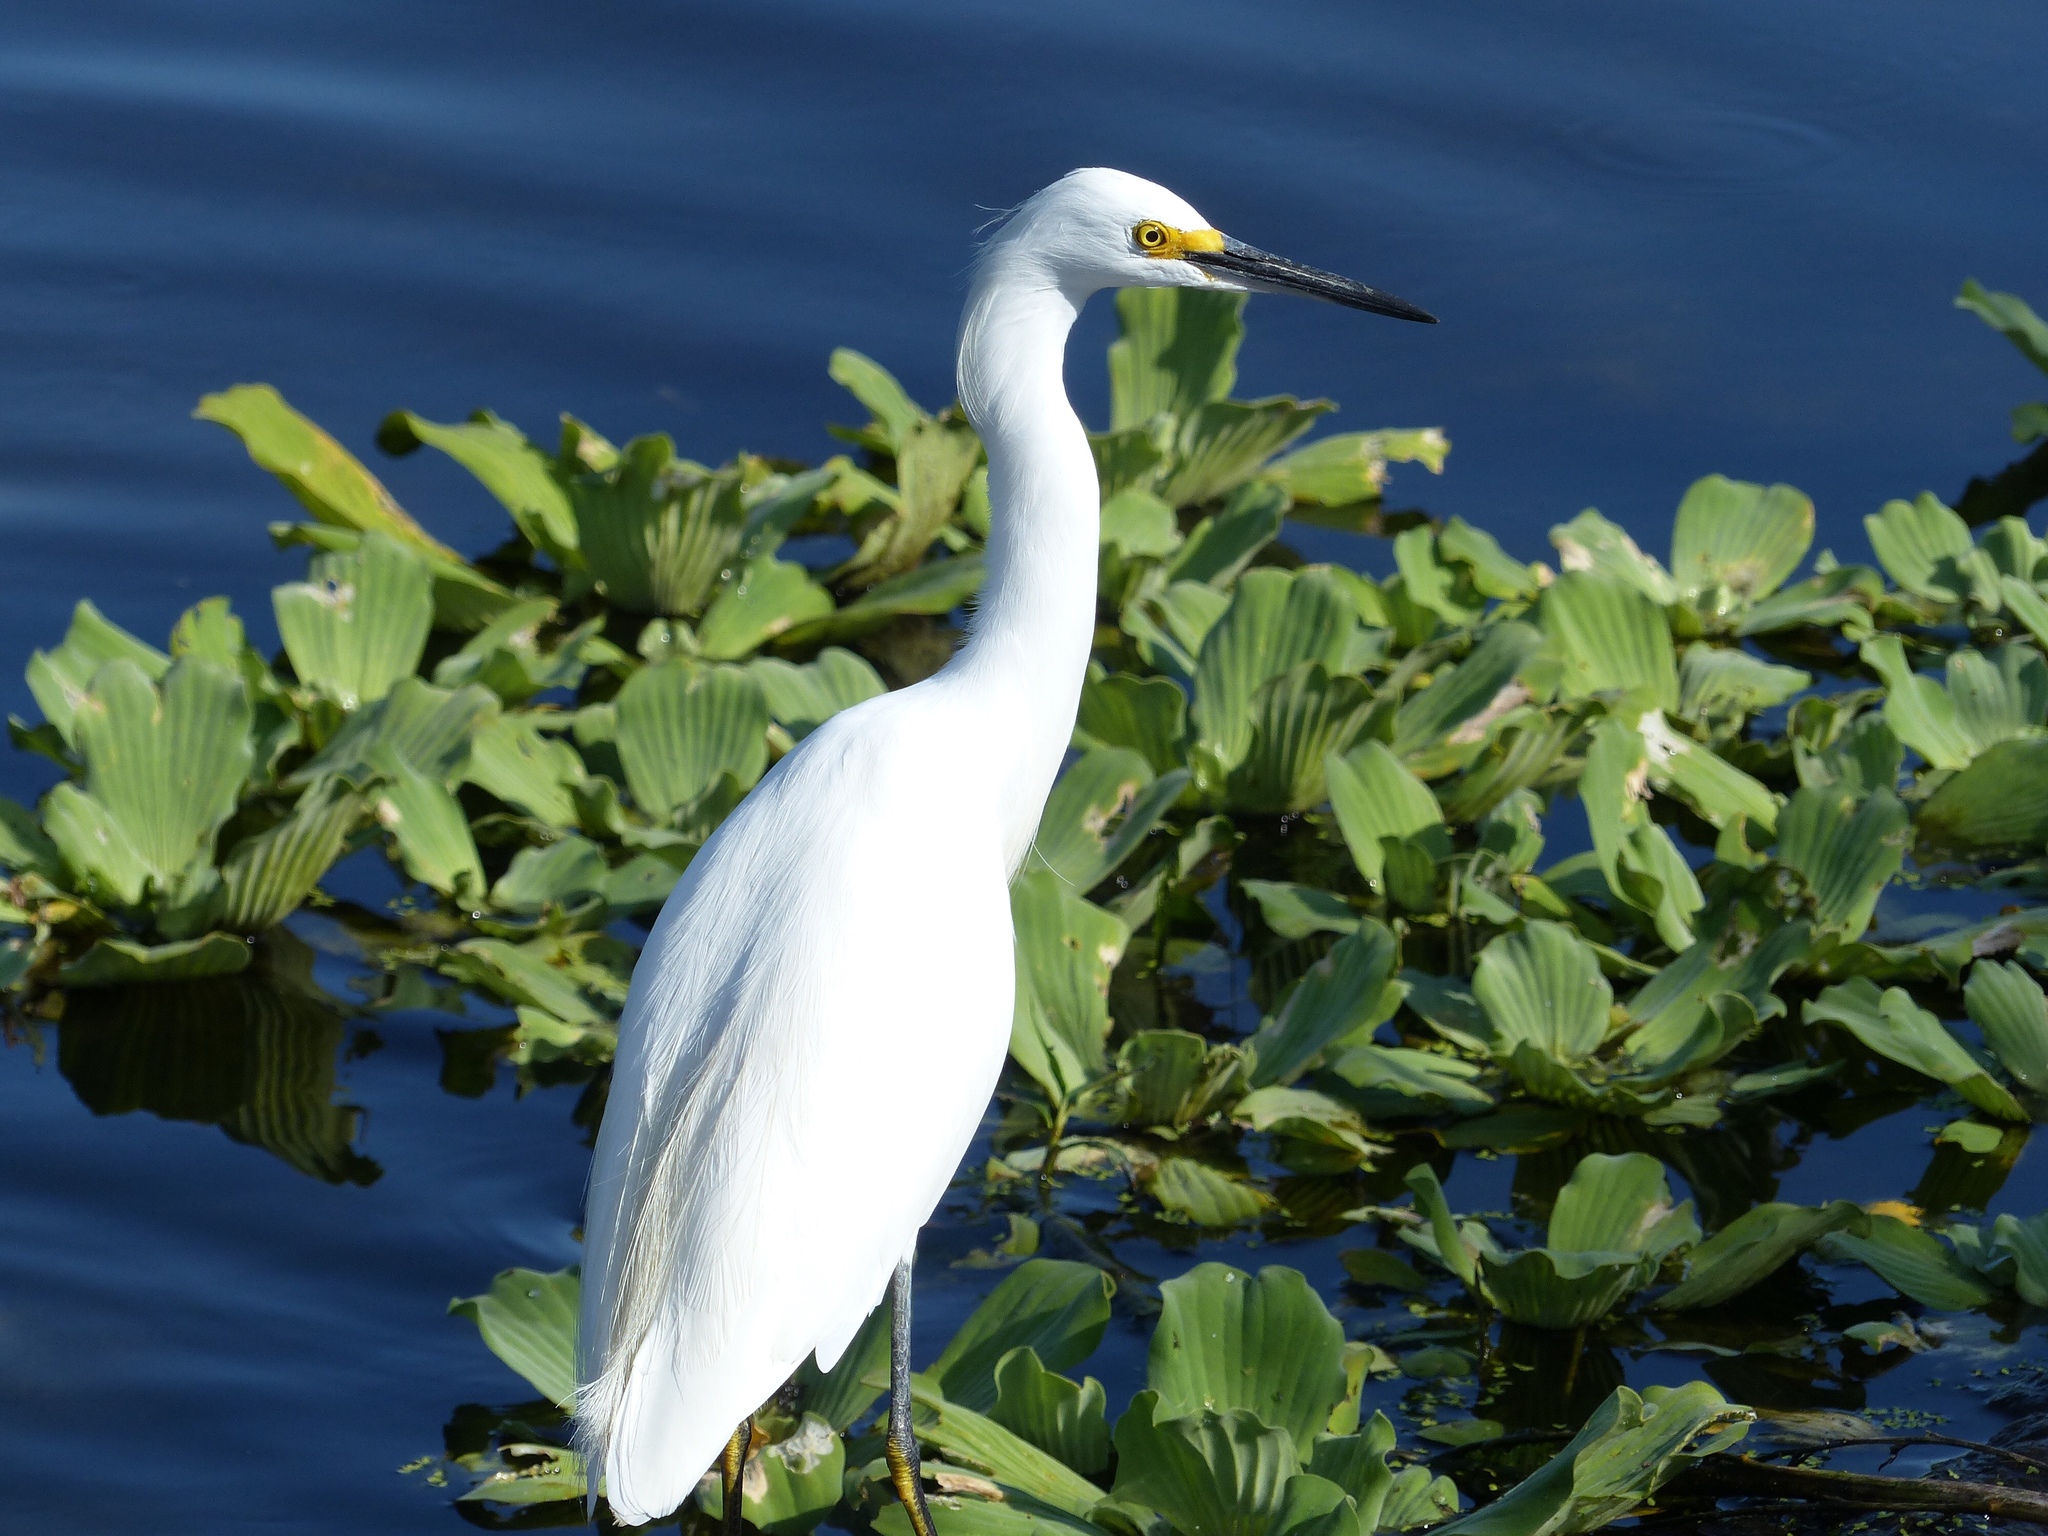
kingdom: Animalia
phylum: Chordata
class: Aves
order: Pelecaniformes
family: Ardeidae
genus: Egretta
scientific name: Egretta thula
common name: Snowy egret
